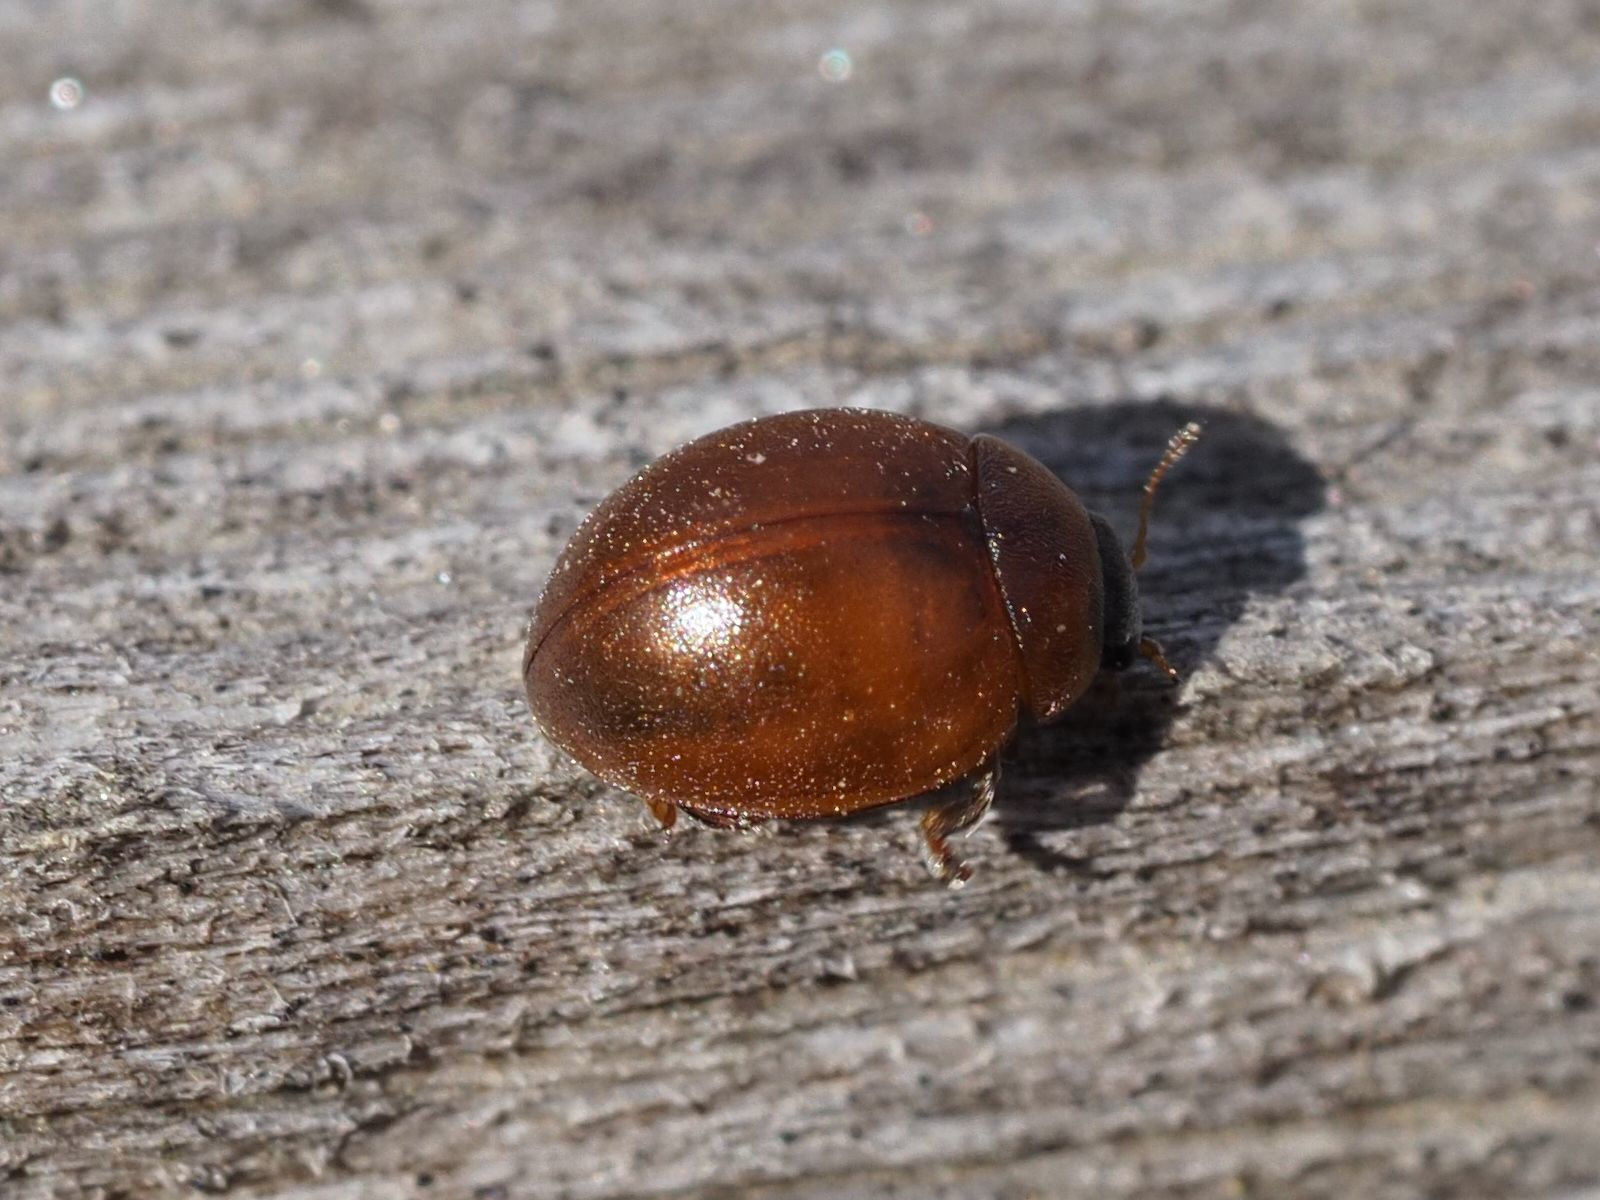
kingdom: Animalia
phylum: Arthropoda
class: Insecta
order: Coleoptera
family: Coccinellidae
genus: Cynegetis
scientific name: Cynegetis impunctata
